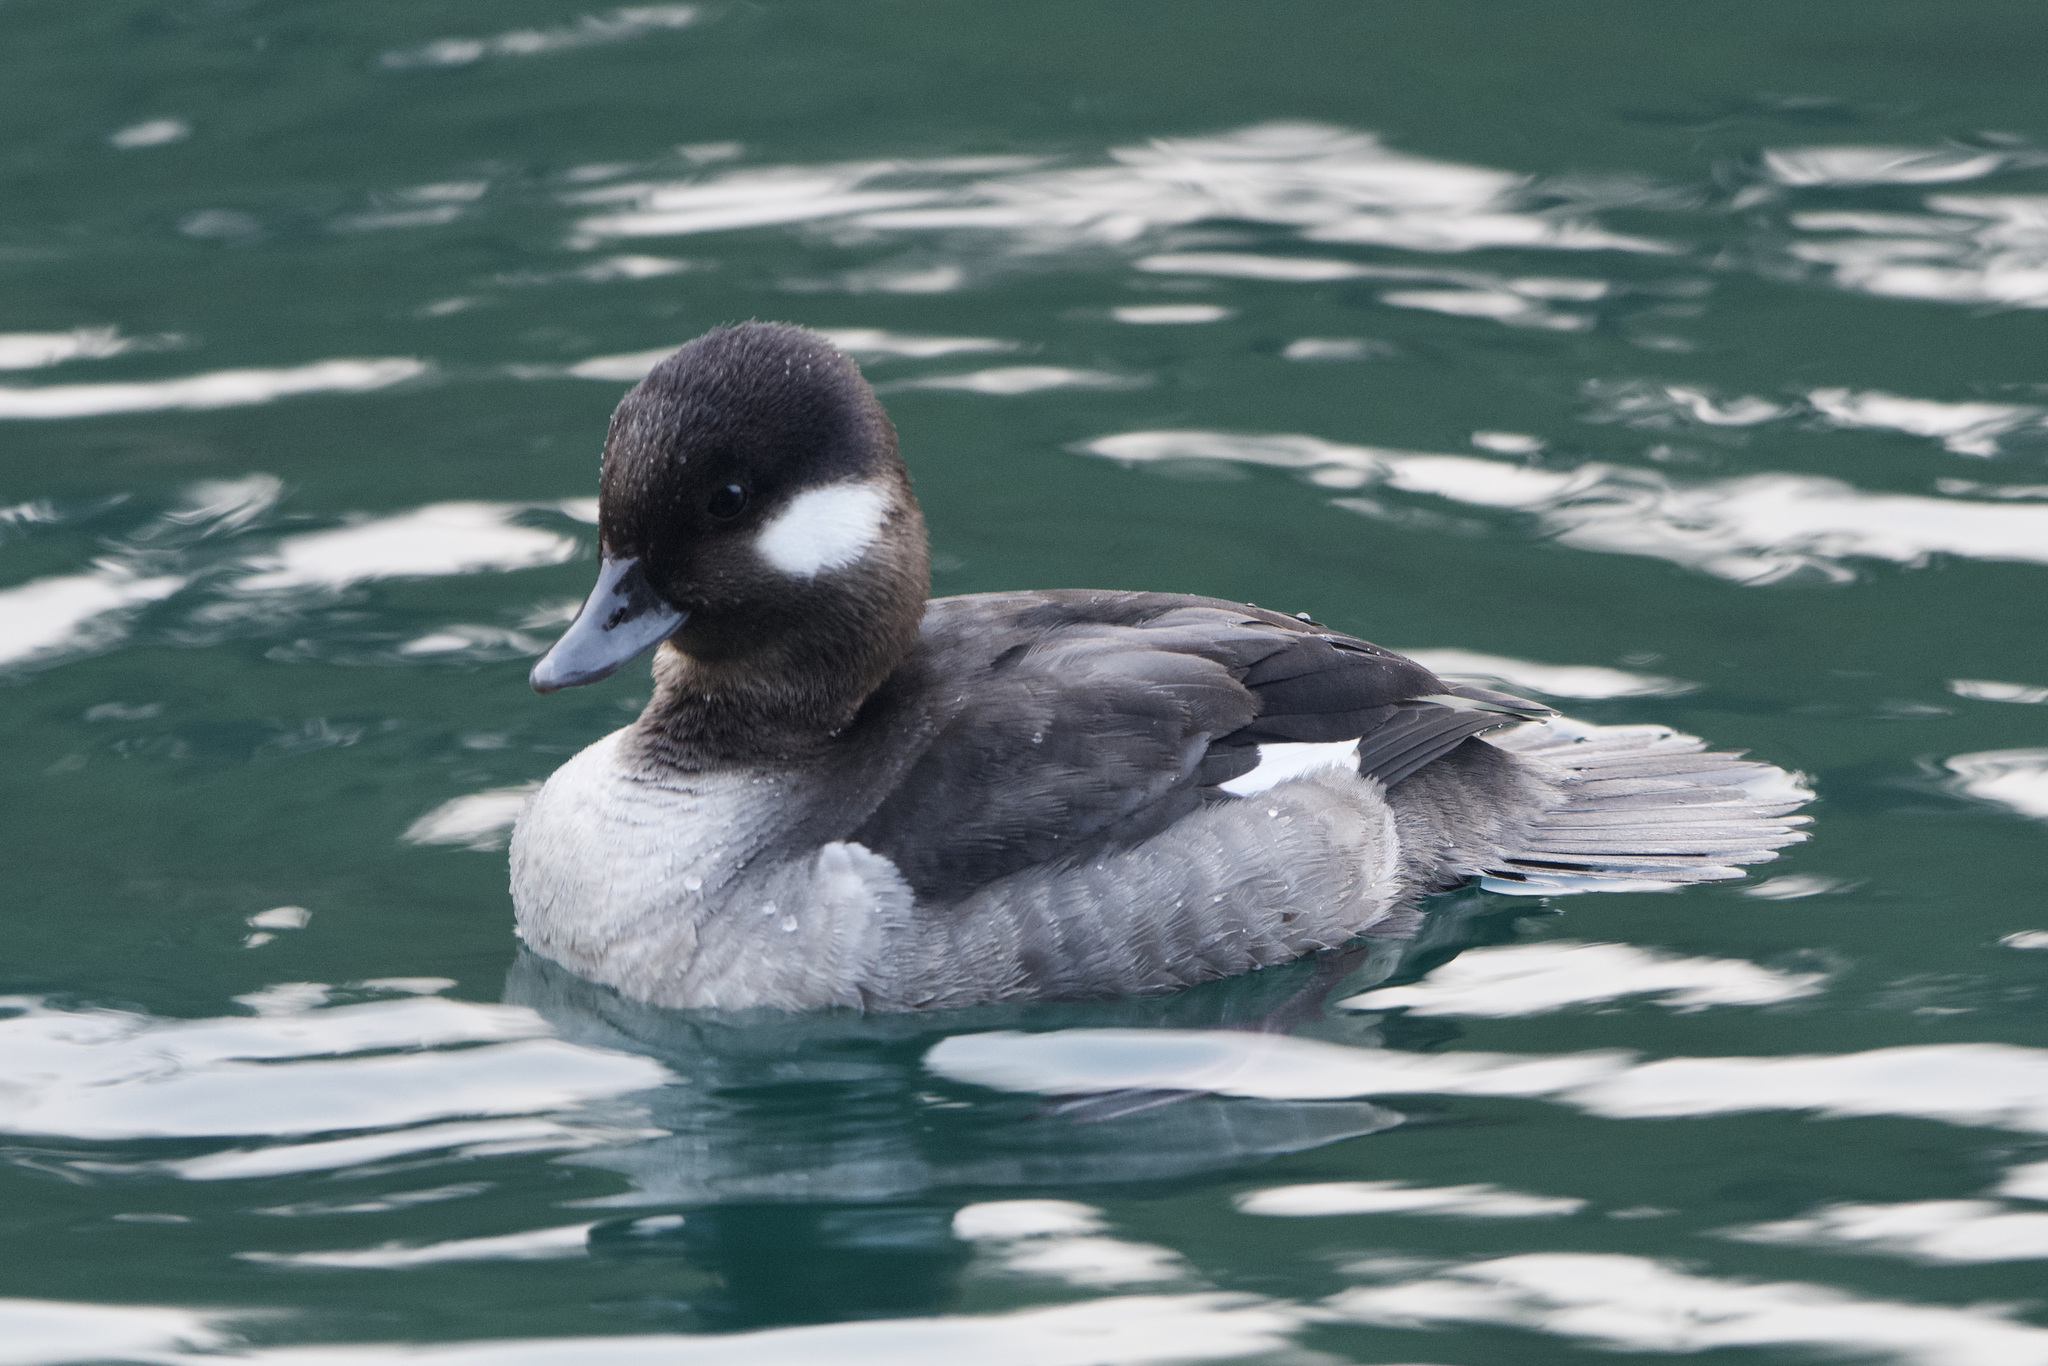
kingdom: Animalia
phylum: Chordata
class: Aves
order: Anseriformes
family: Anatidae
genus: Bucephala
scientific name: Bucephala albeola
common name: Bufflehead
